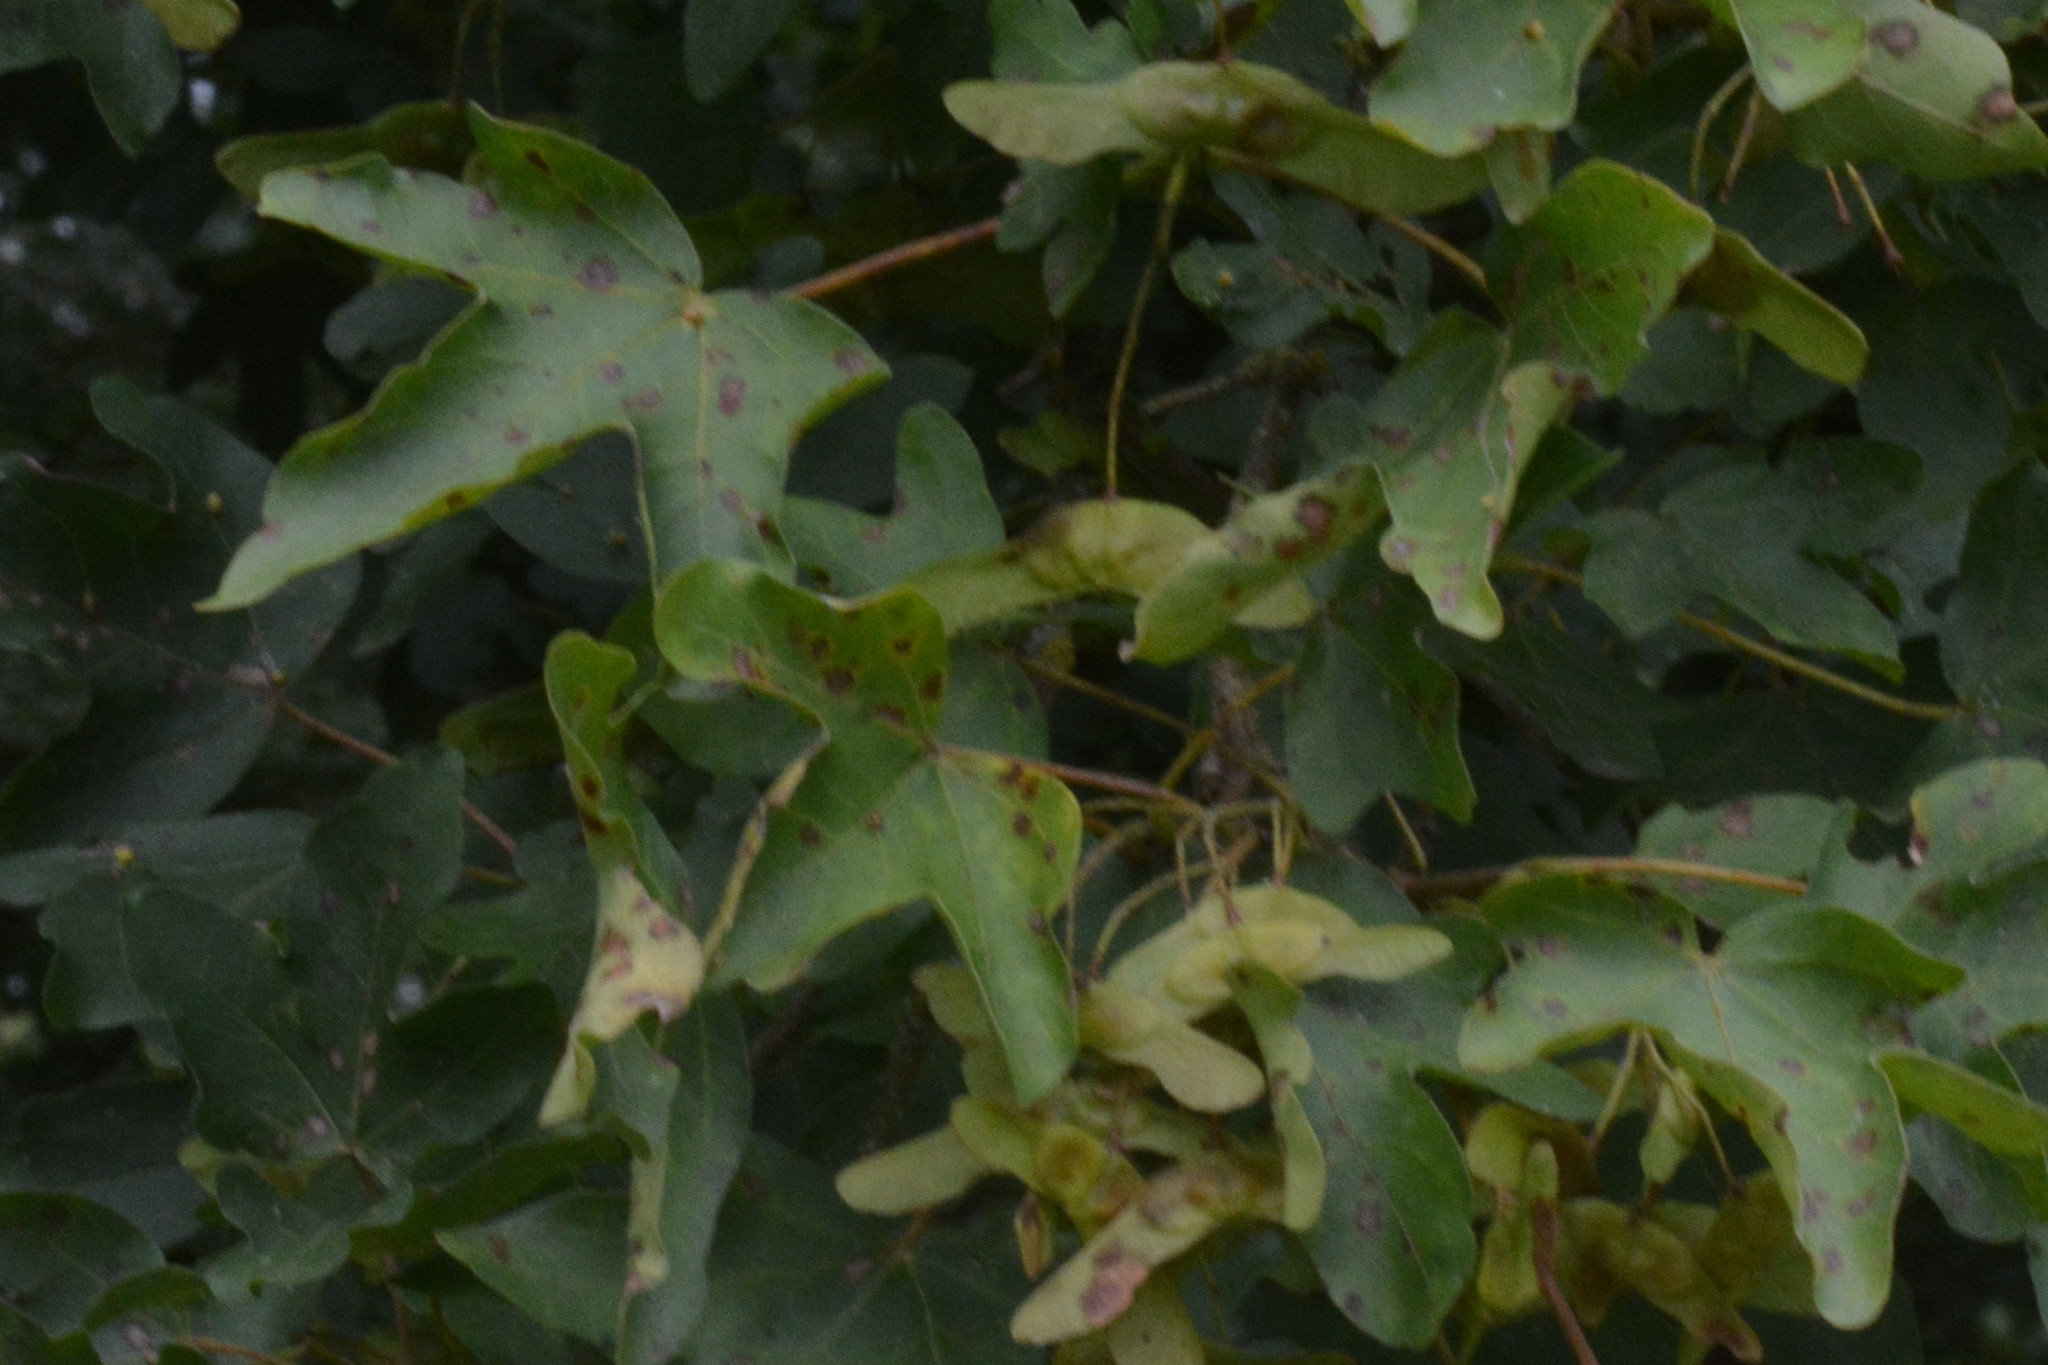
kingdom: Fungi
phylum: Ascomycota
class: Leotiomycetes
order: Rhytismatales
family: Rhytismataceae
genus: Rhytisma
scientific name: Rhytisma acerinum
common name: European tar spot
